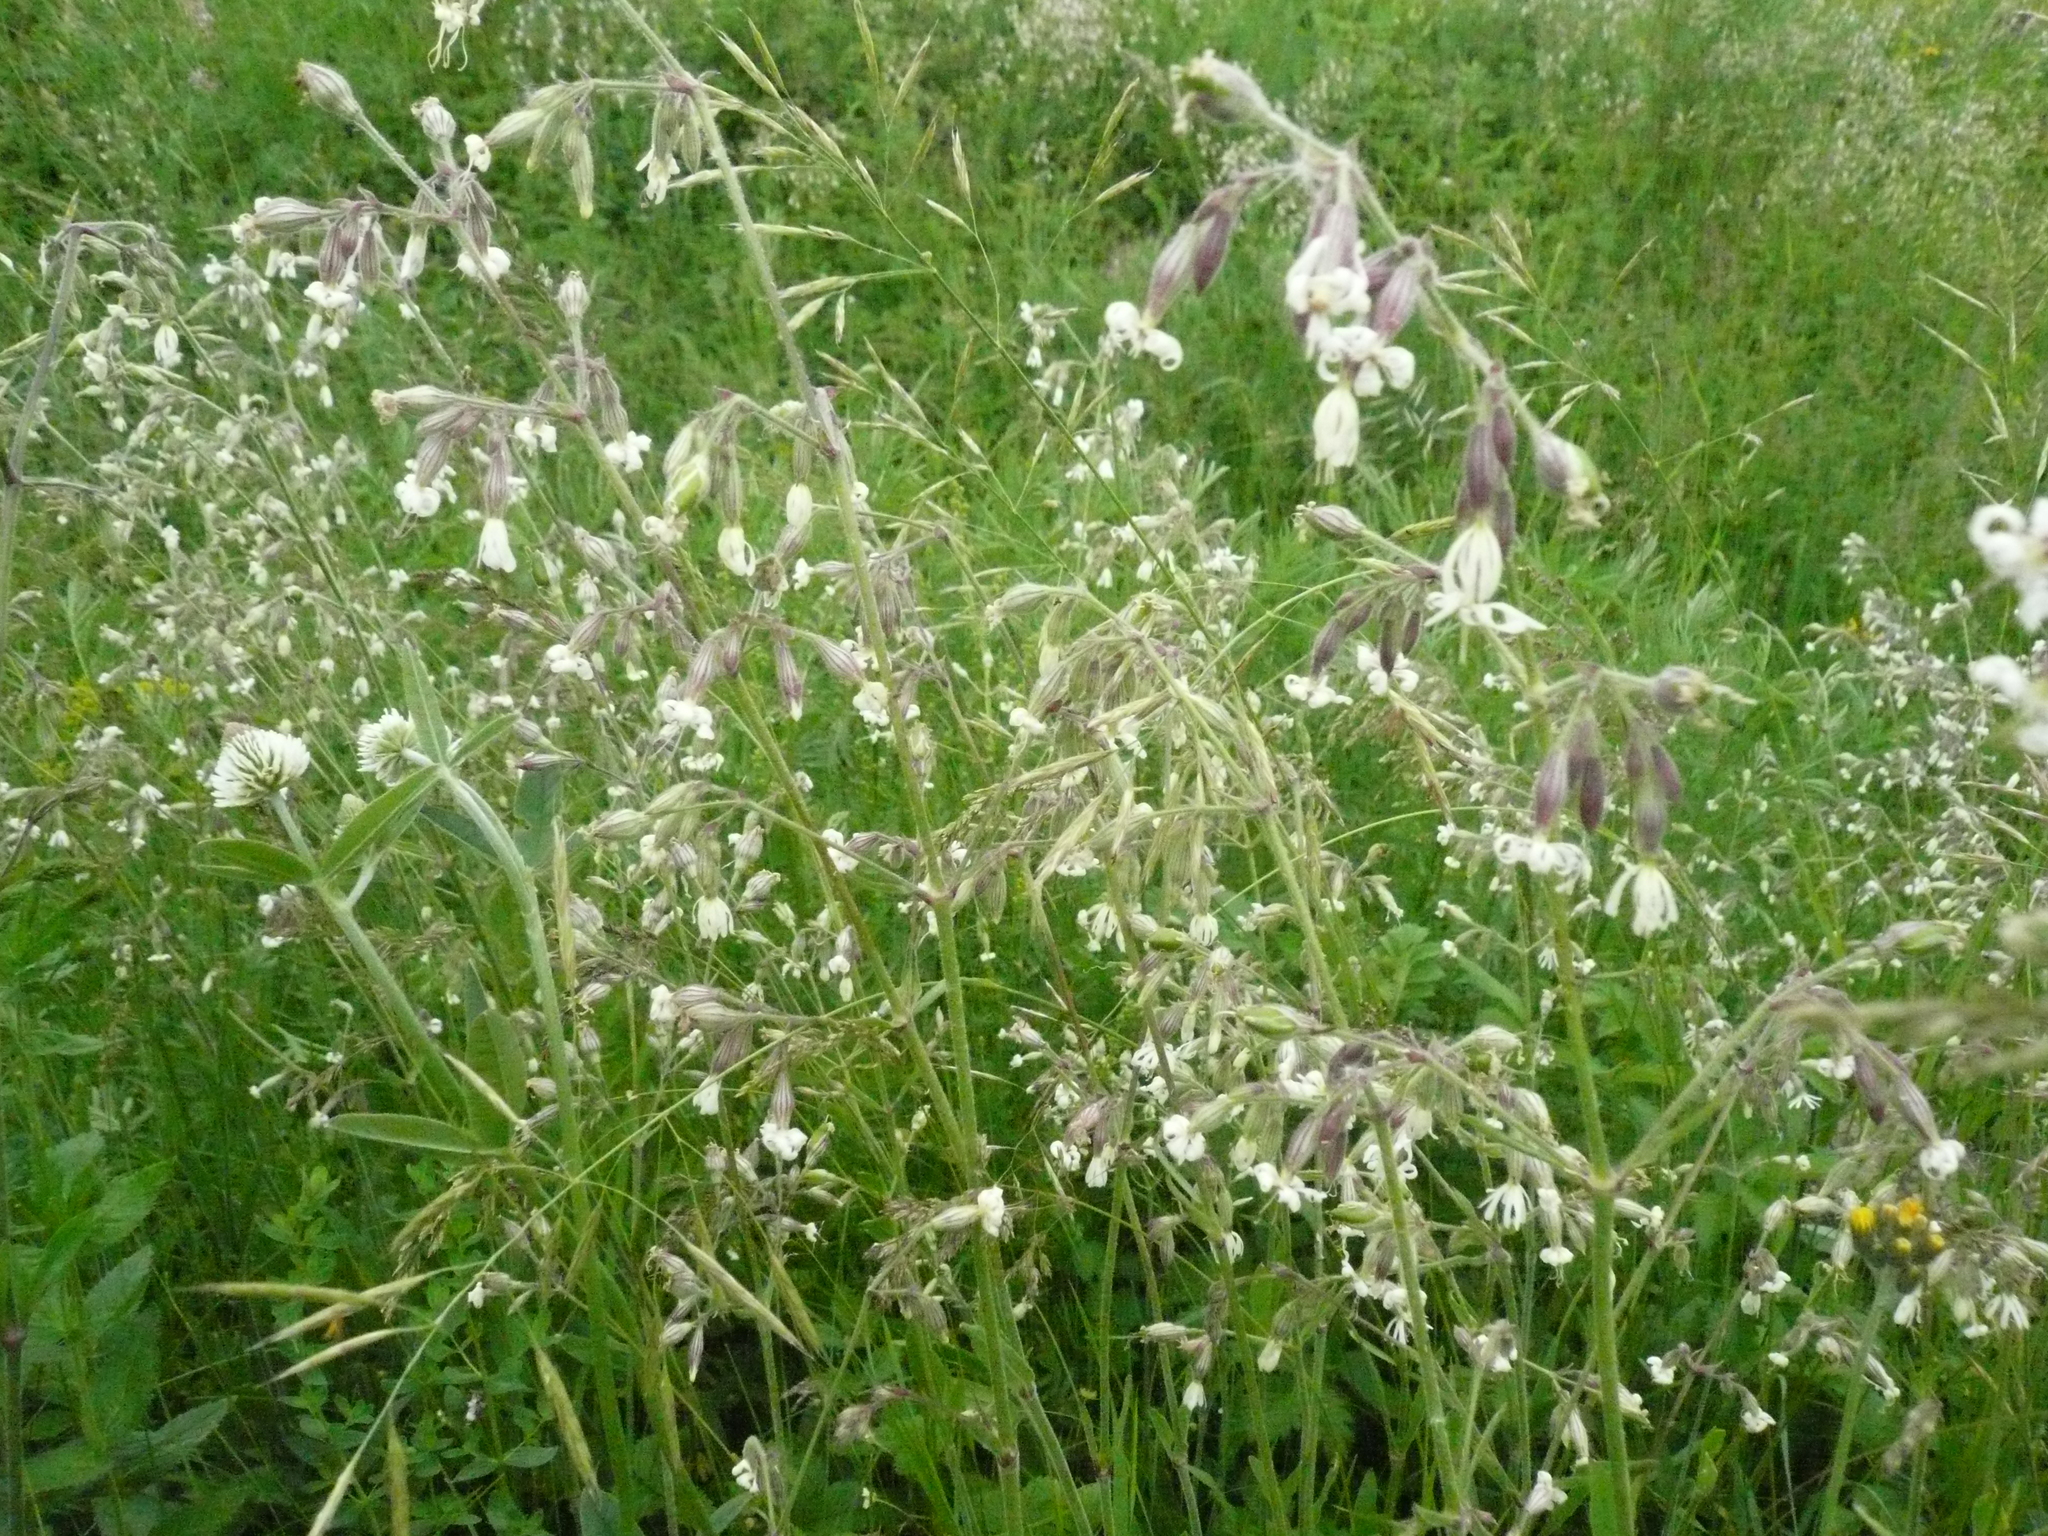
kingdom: Plantae
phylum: Tracheophyta
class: Magnoliopsida
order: Caryophyllales
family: Caryophyllaceae
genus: Silene
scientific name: Silene nutans
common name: Nottingham catchfly
